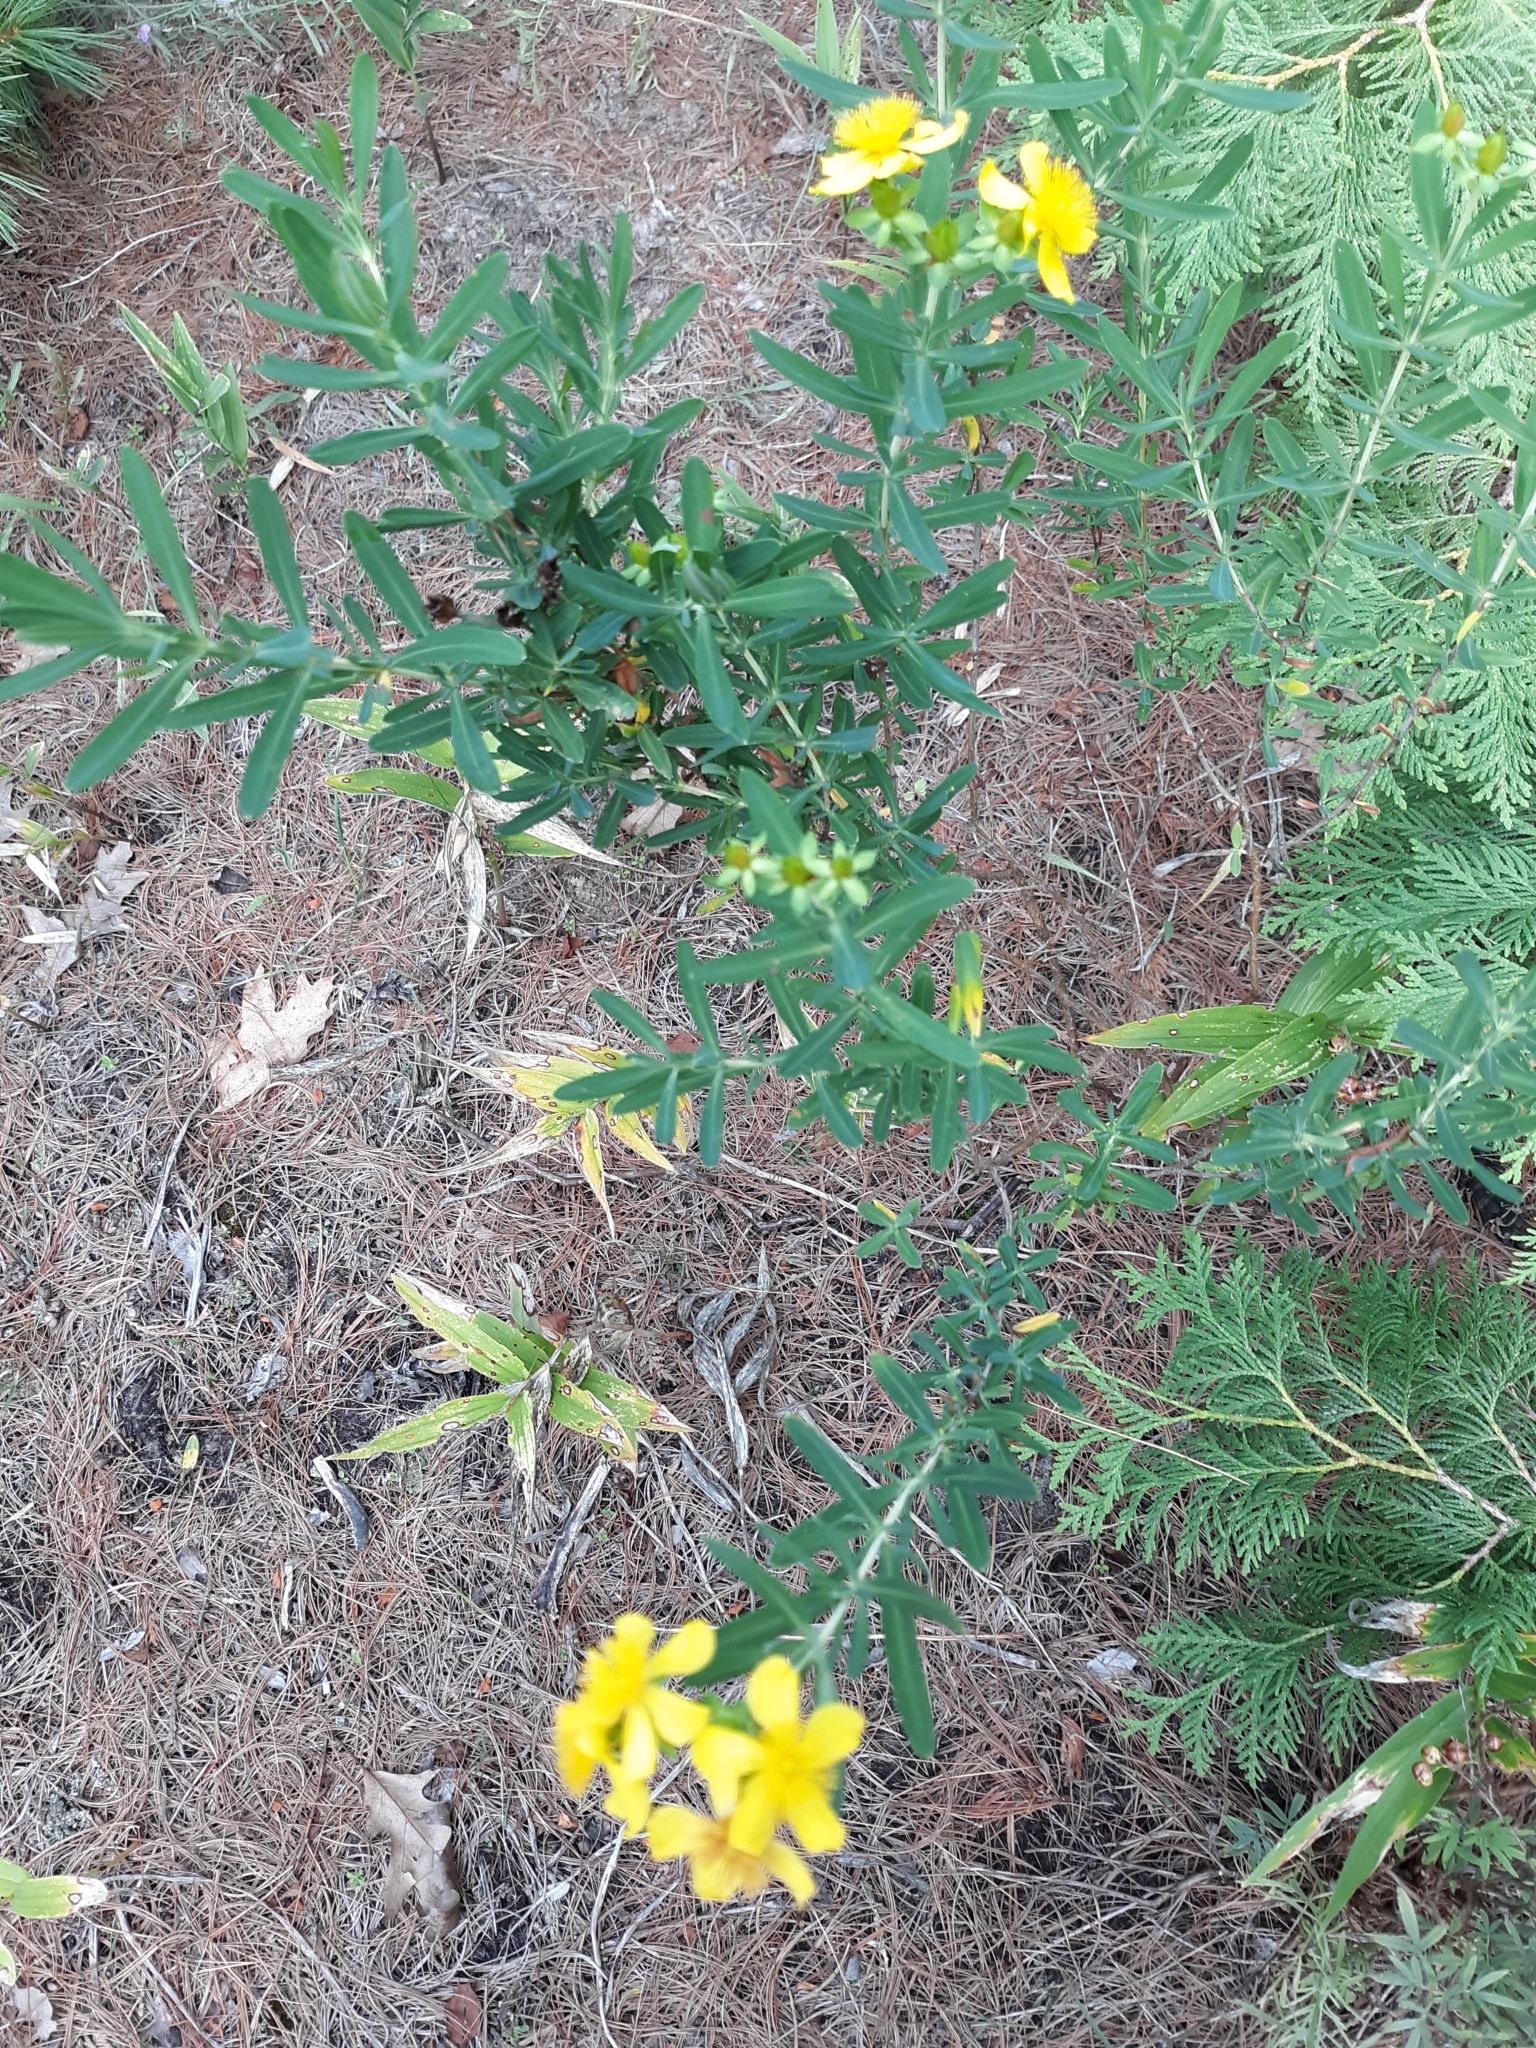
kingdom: Plantae
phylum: Tracheophyta
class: Magnoliopsida
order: Malpighiales
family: Hypericaceae
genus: Hypericum
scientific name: Hypericum kalmianum
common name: Kalm's st. john's-wort
